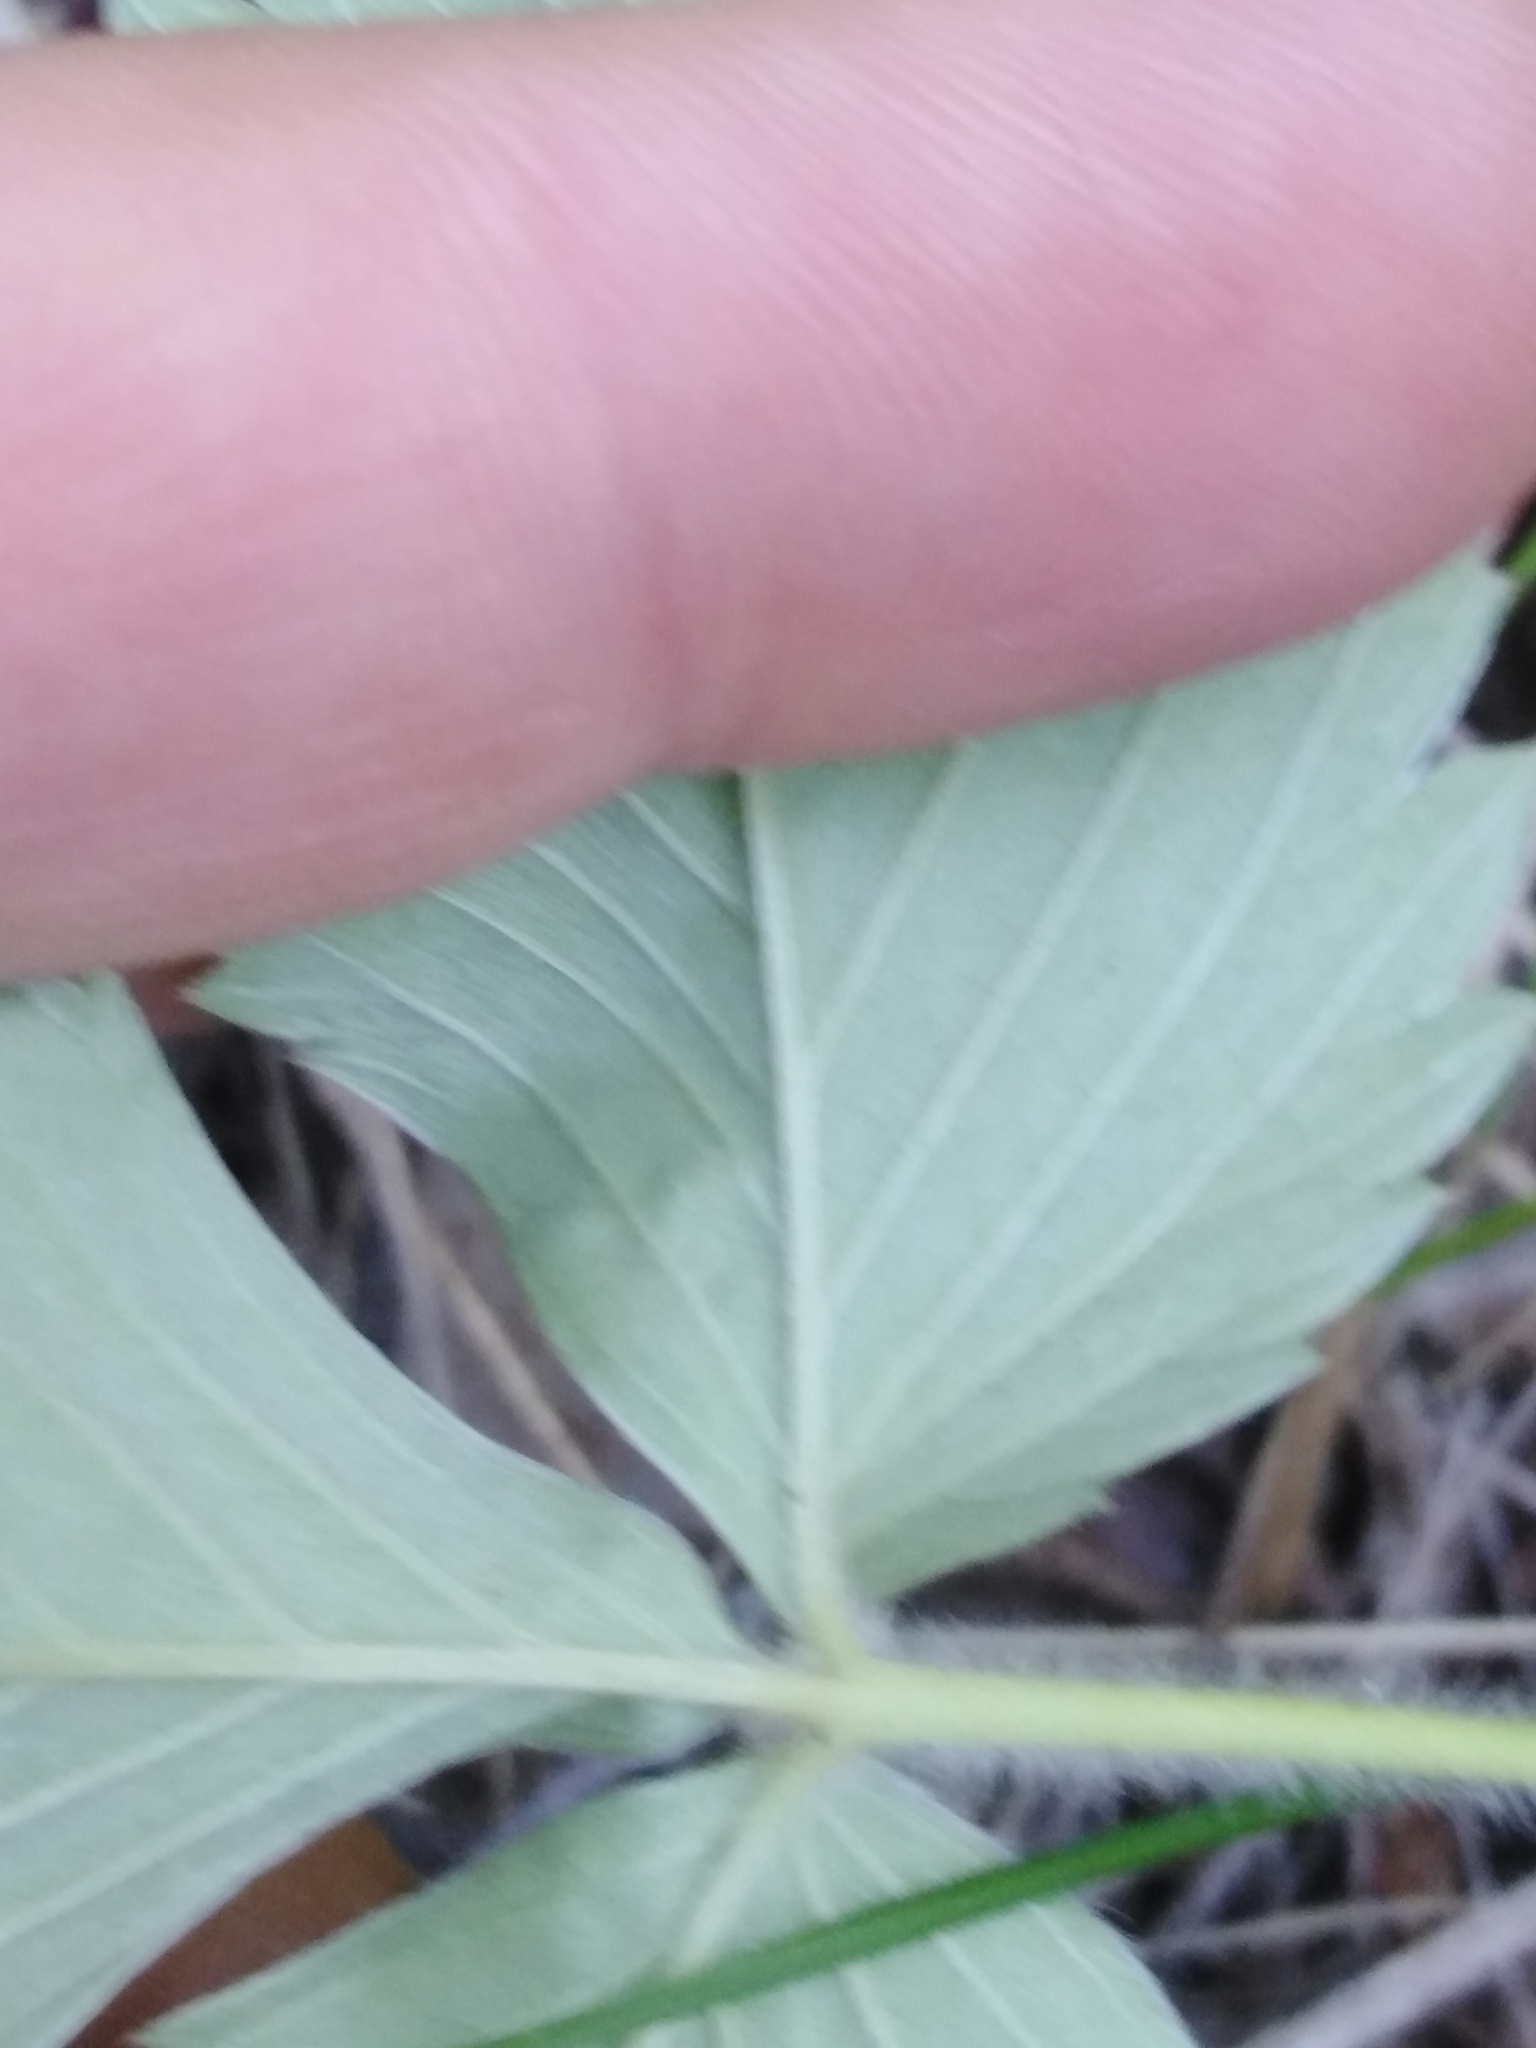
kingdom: Plantae
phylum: Tracheophyta
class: Magnoliopsida
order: Rosales
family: Rosaceae
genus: Fragaria
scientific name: Fragaria vesca
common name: Wild strawberry
